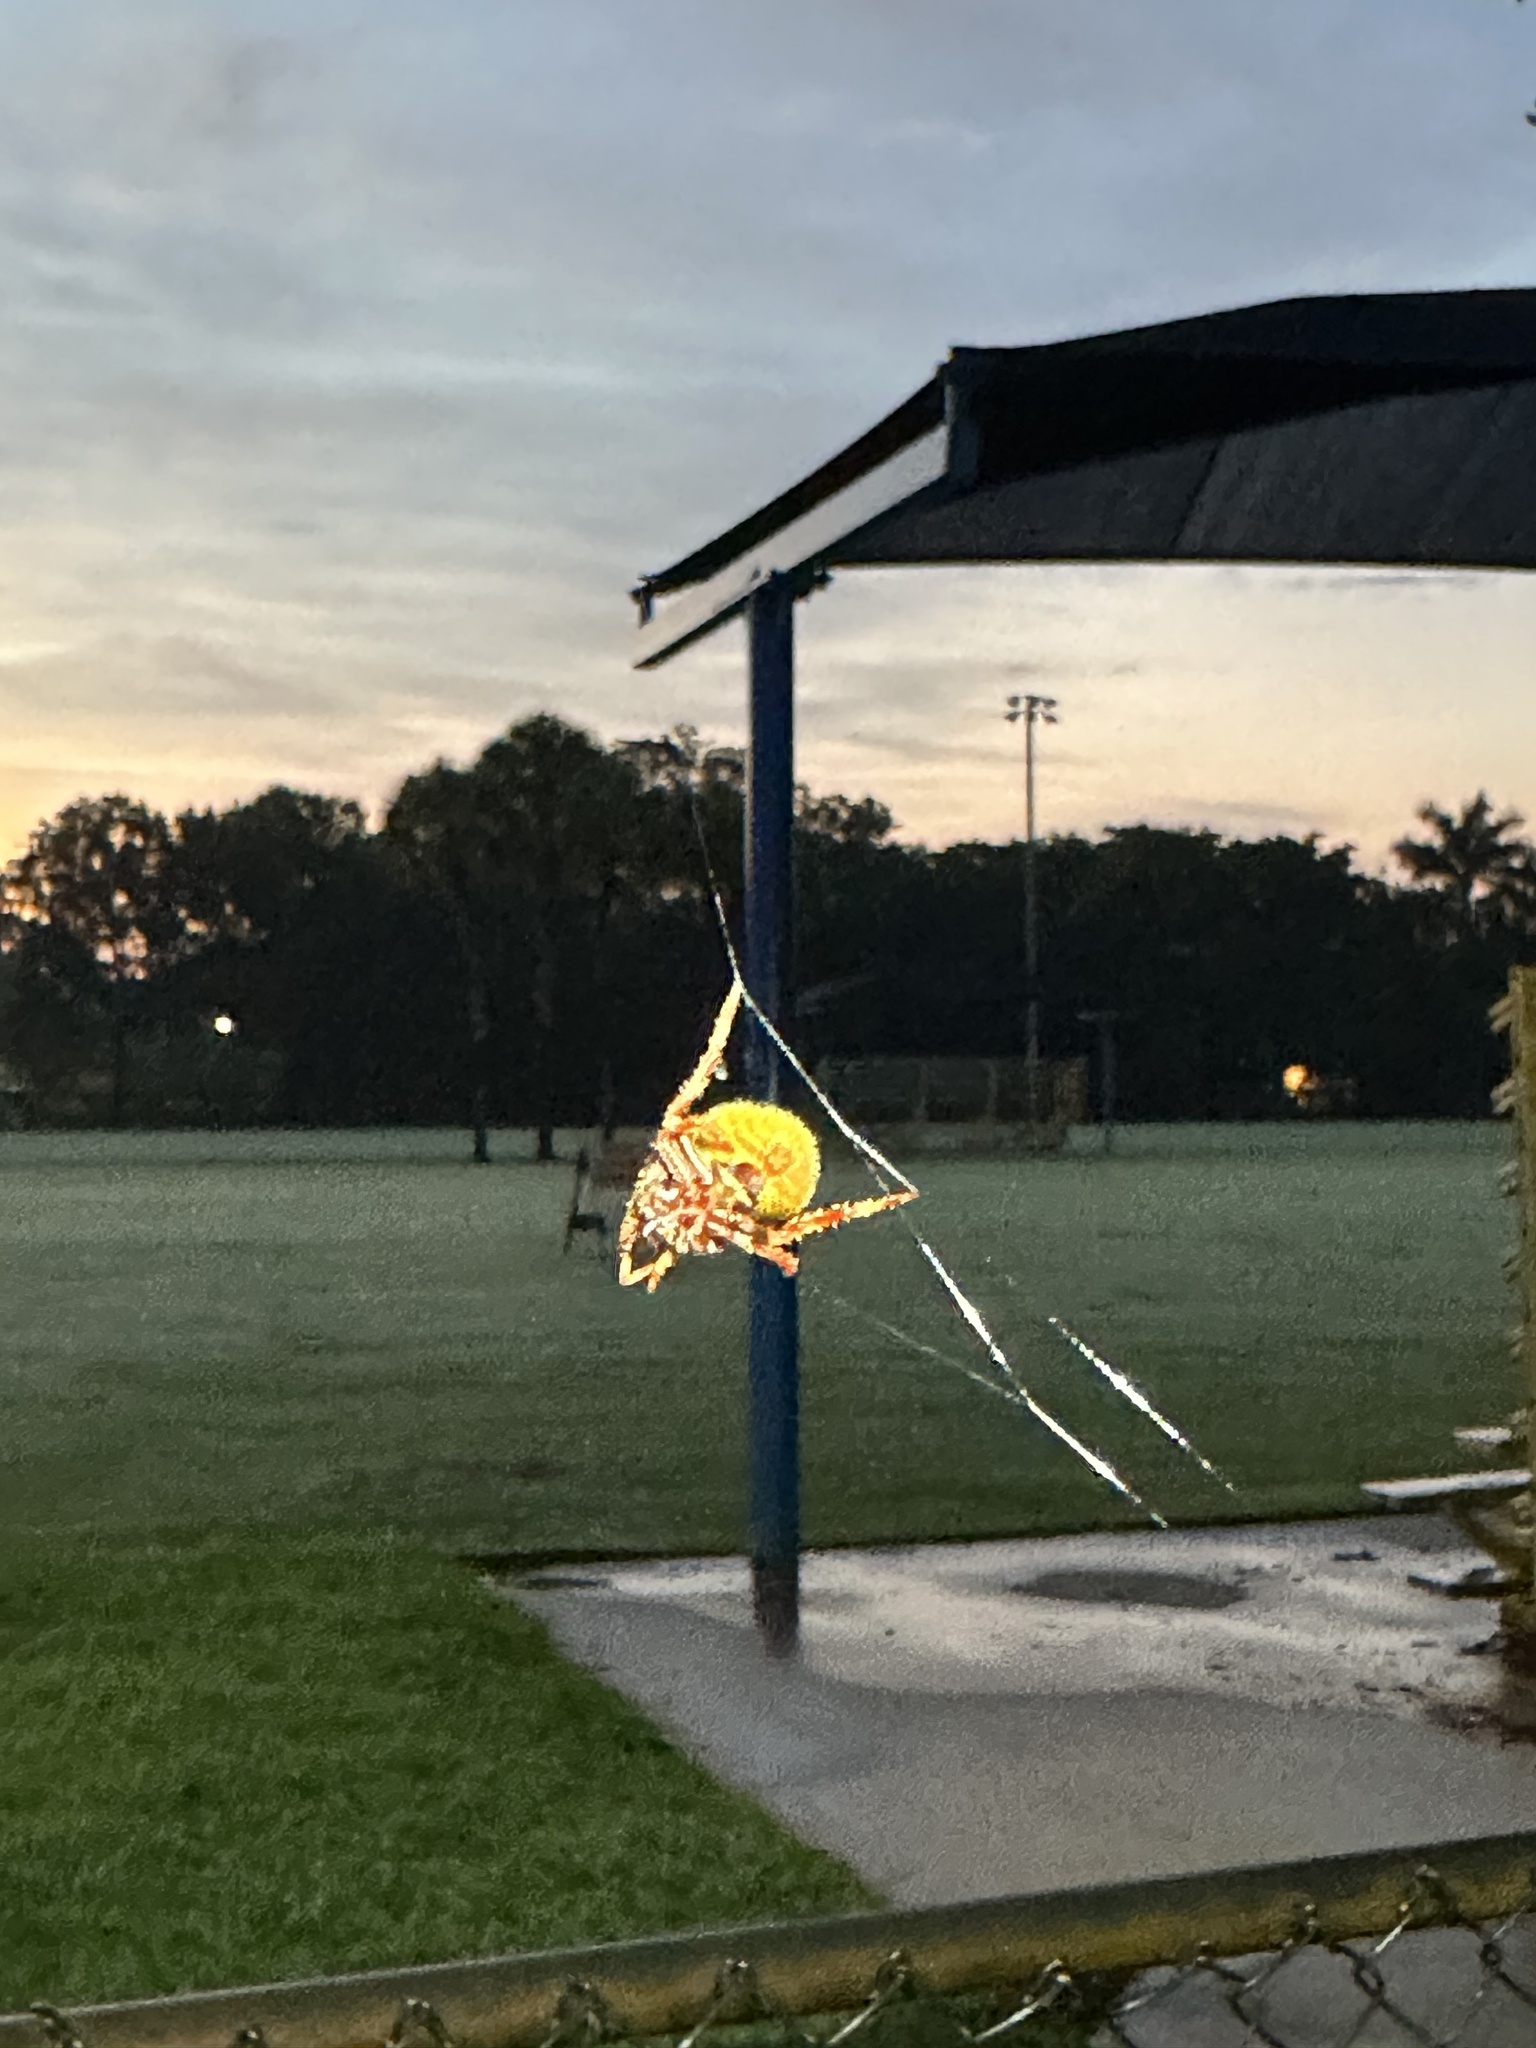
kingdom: Animalia
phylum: Arthropoda
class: Arachnida
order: Araneae
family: Araneidae
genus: Eriophora
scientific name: Eriophora ravilla
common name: Orb weavers
